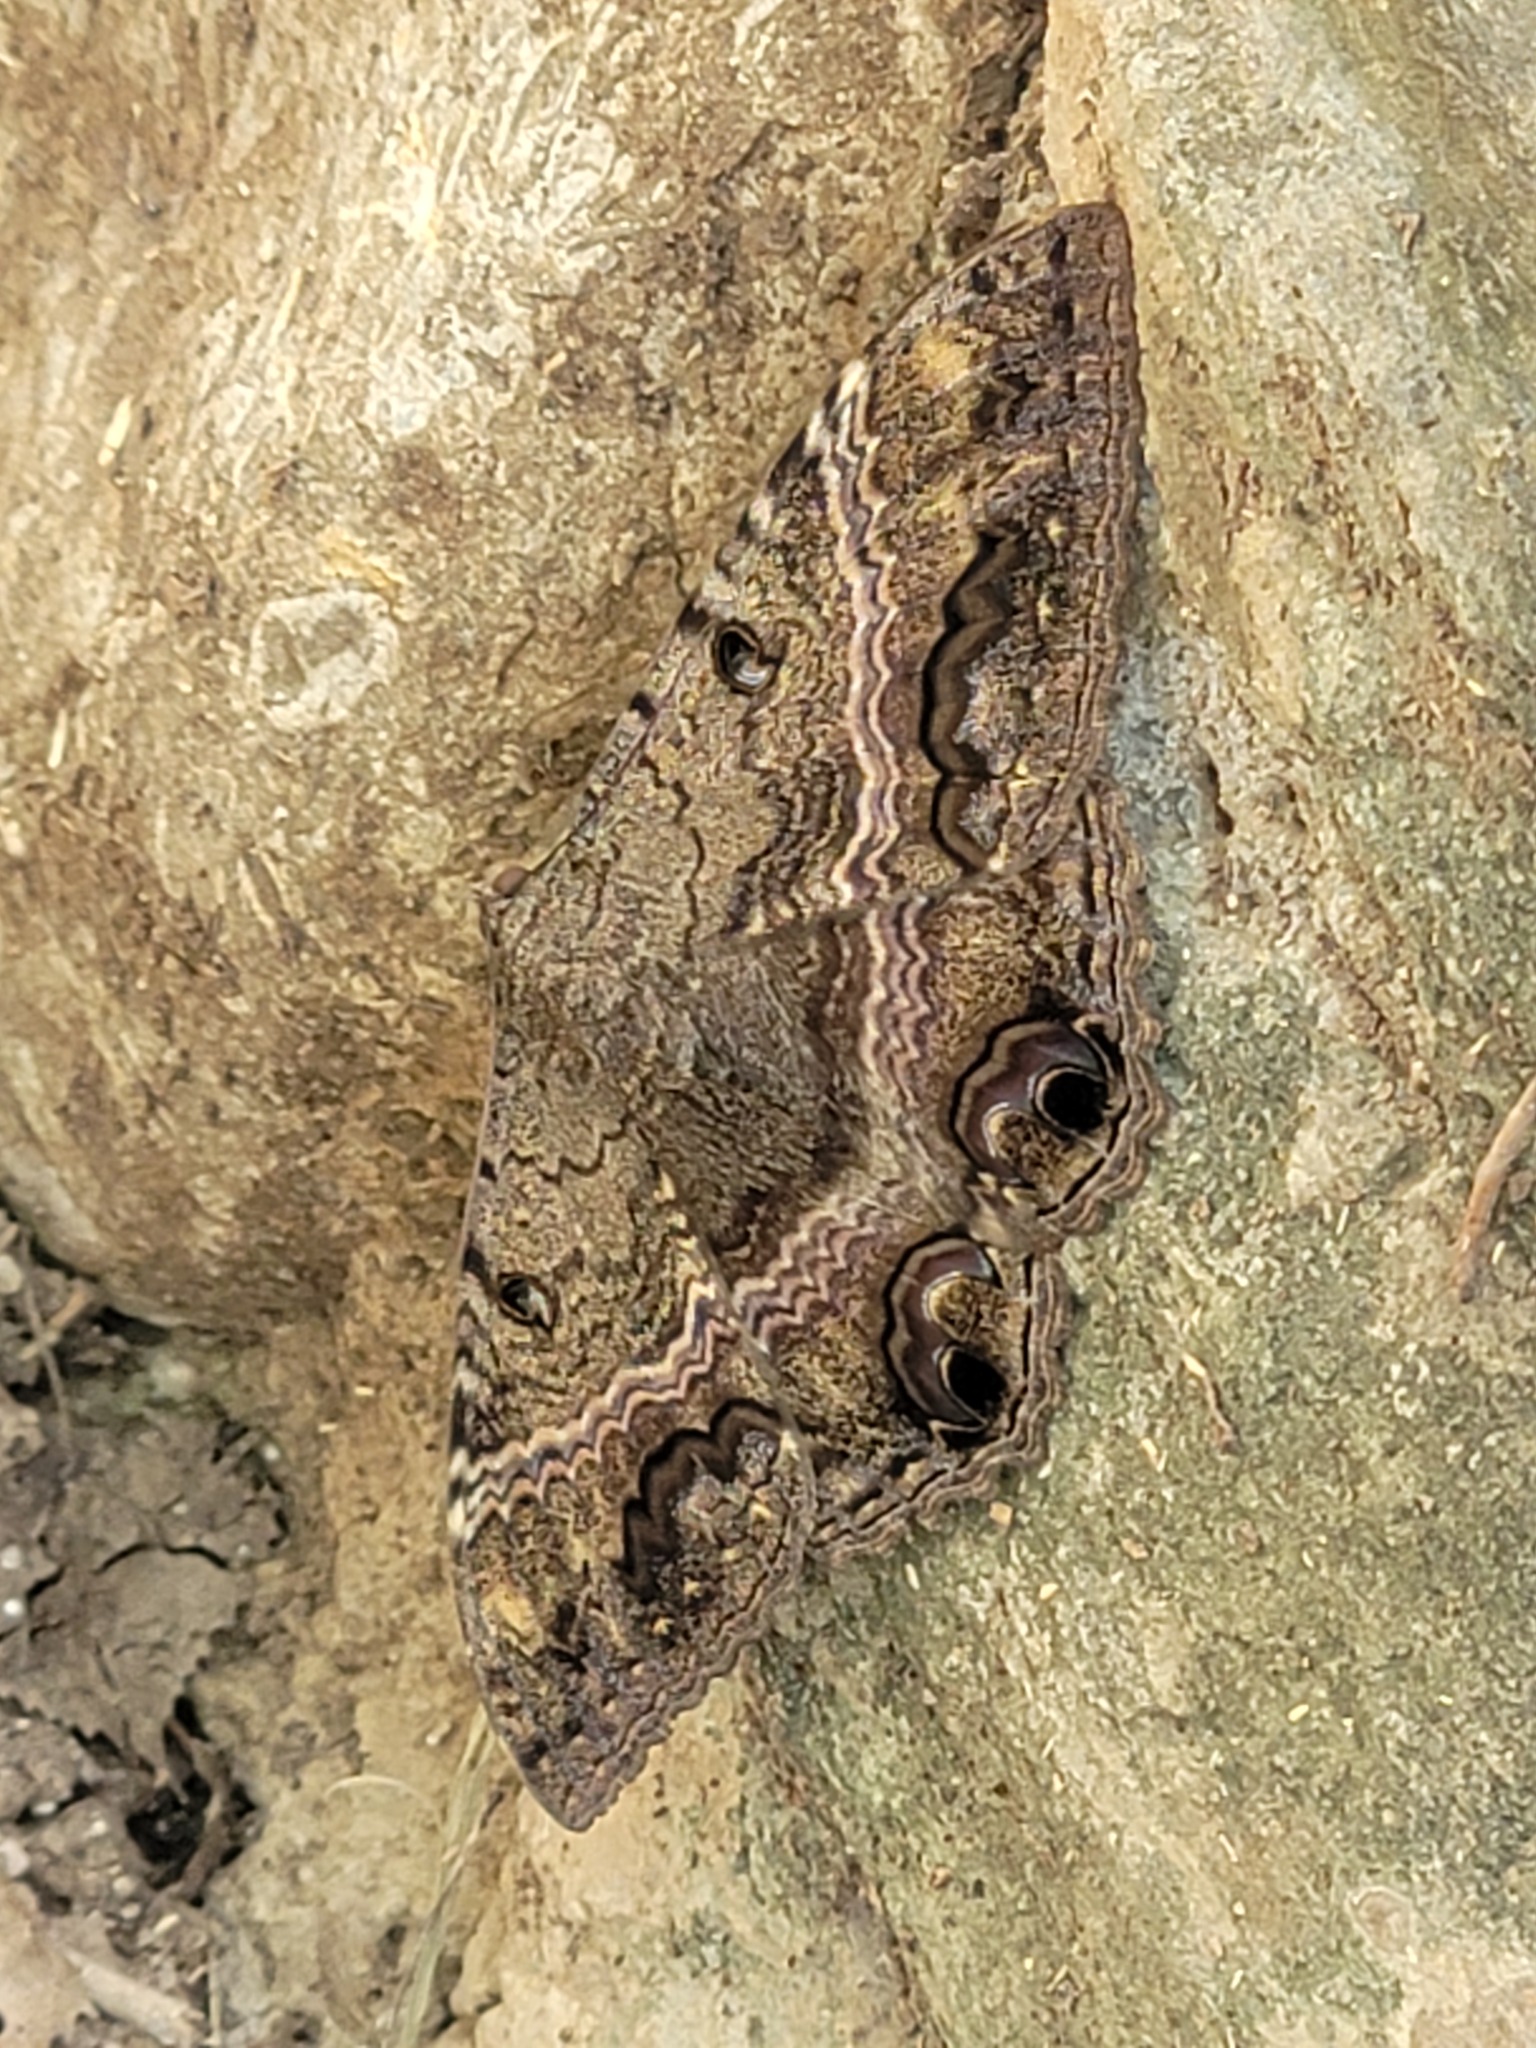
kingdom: Animalia
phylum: Arthropoda
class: Insecta
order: Lepidoptera
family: Erebidae
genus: Ascalapha
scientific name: Ascalapha odorata
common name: Black witch
